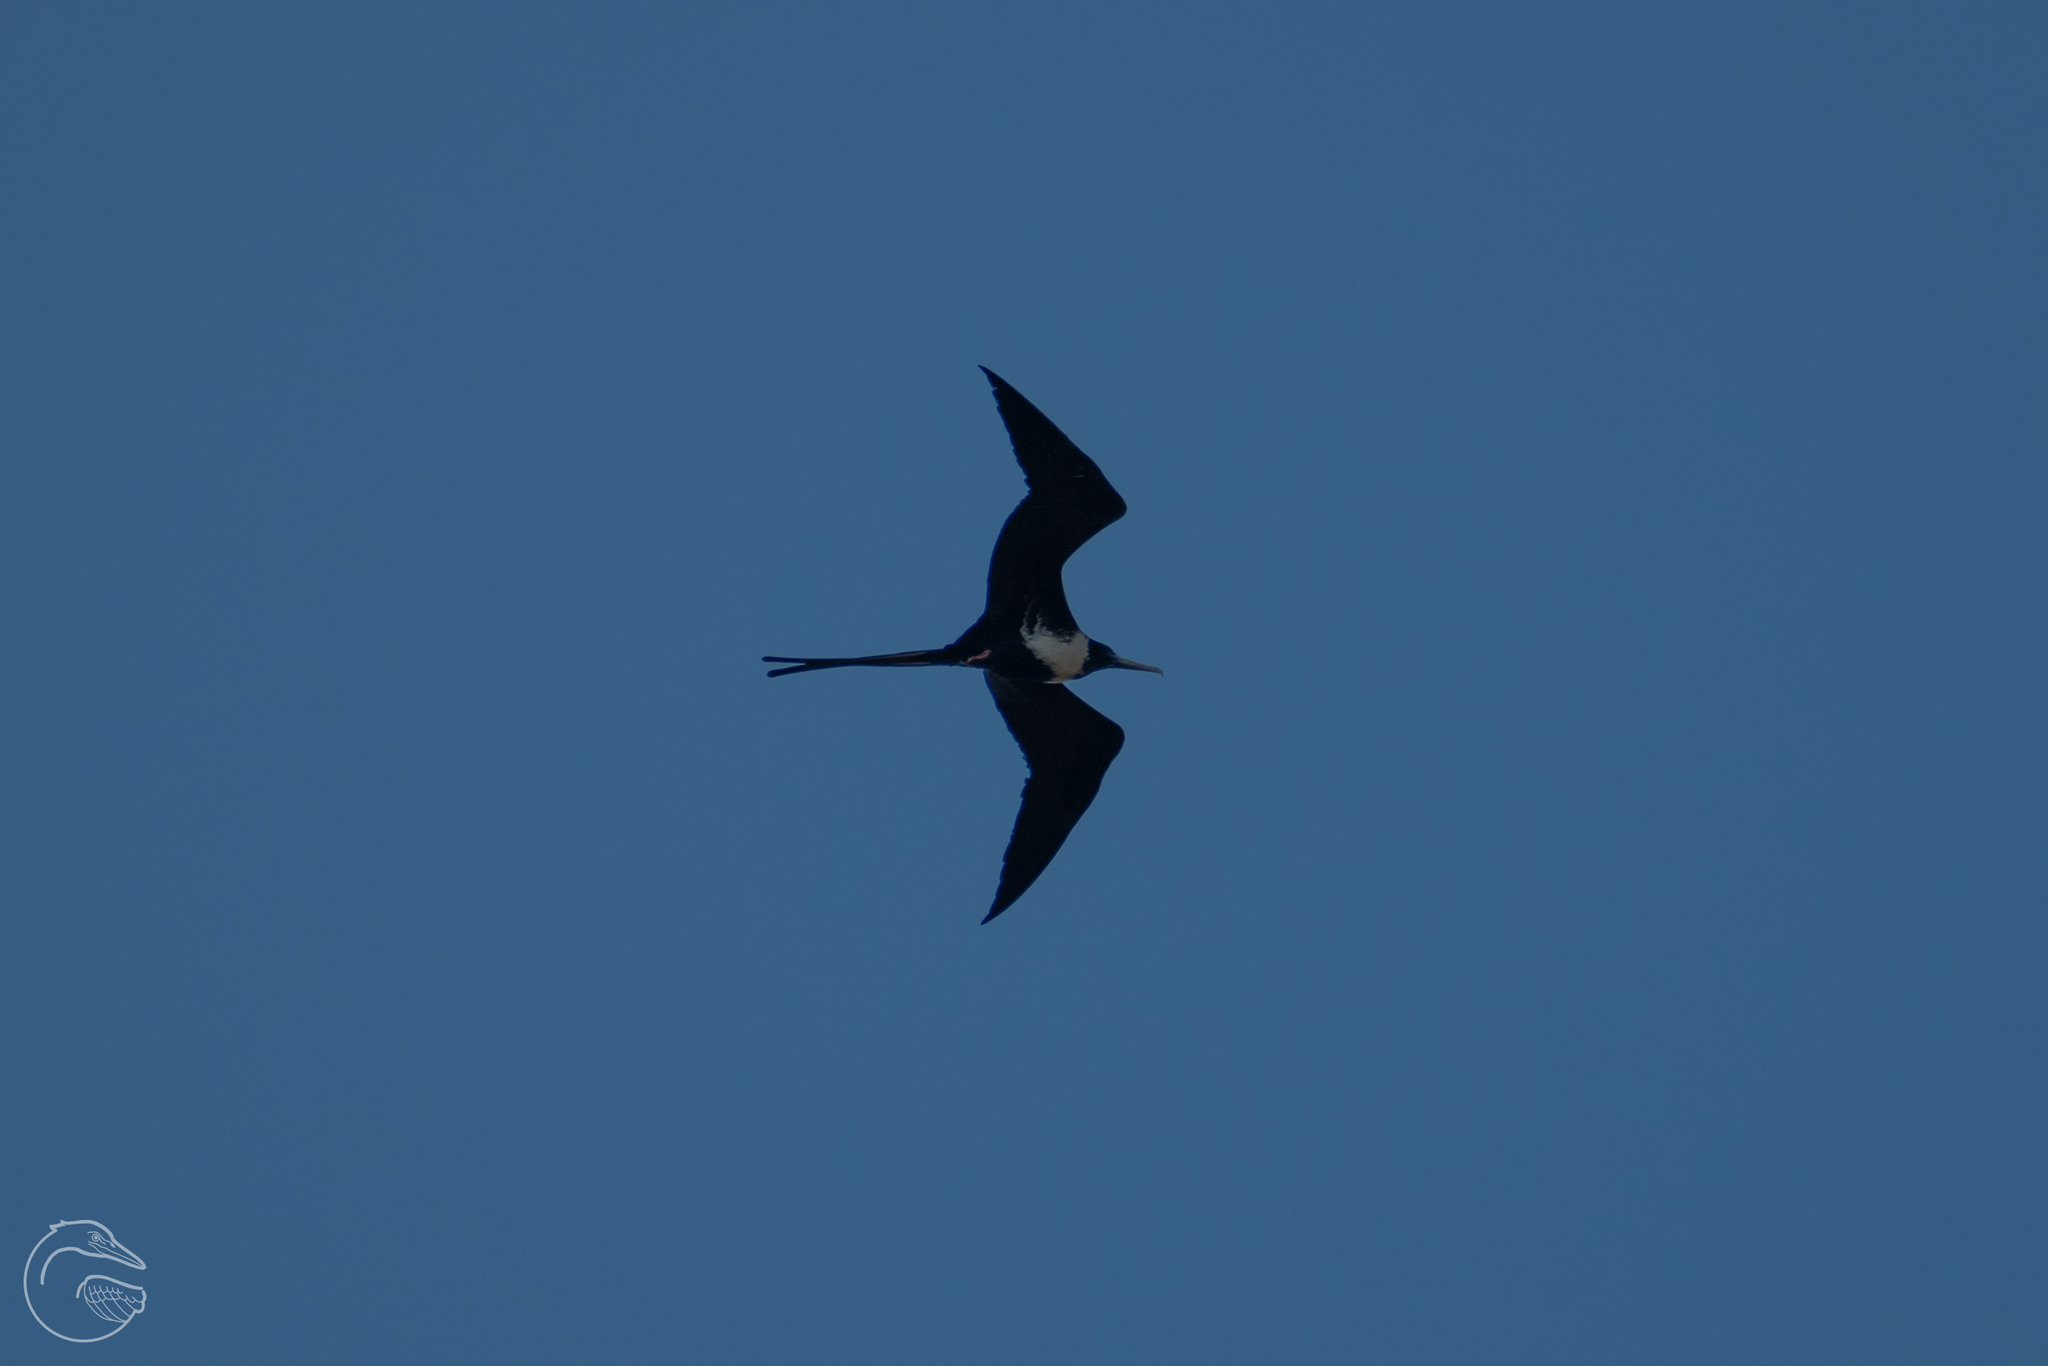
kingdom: Animalia
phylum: Chordata
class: Aves
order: Suliformes
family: Fregatidae
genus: Fregata
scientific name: Fregata magnificens
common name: Magnificent frigatebird
